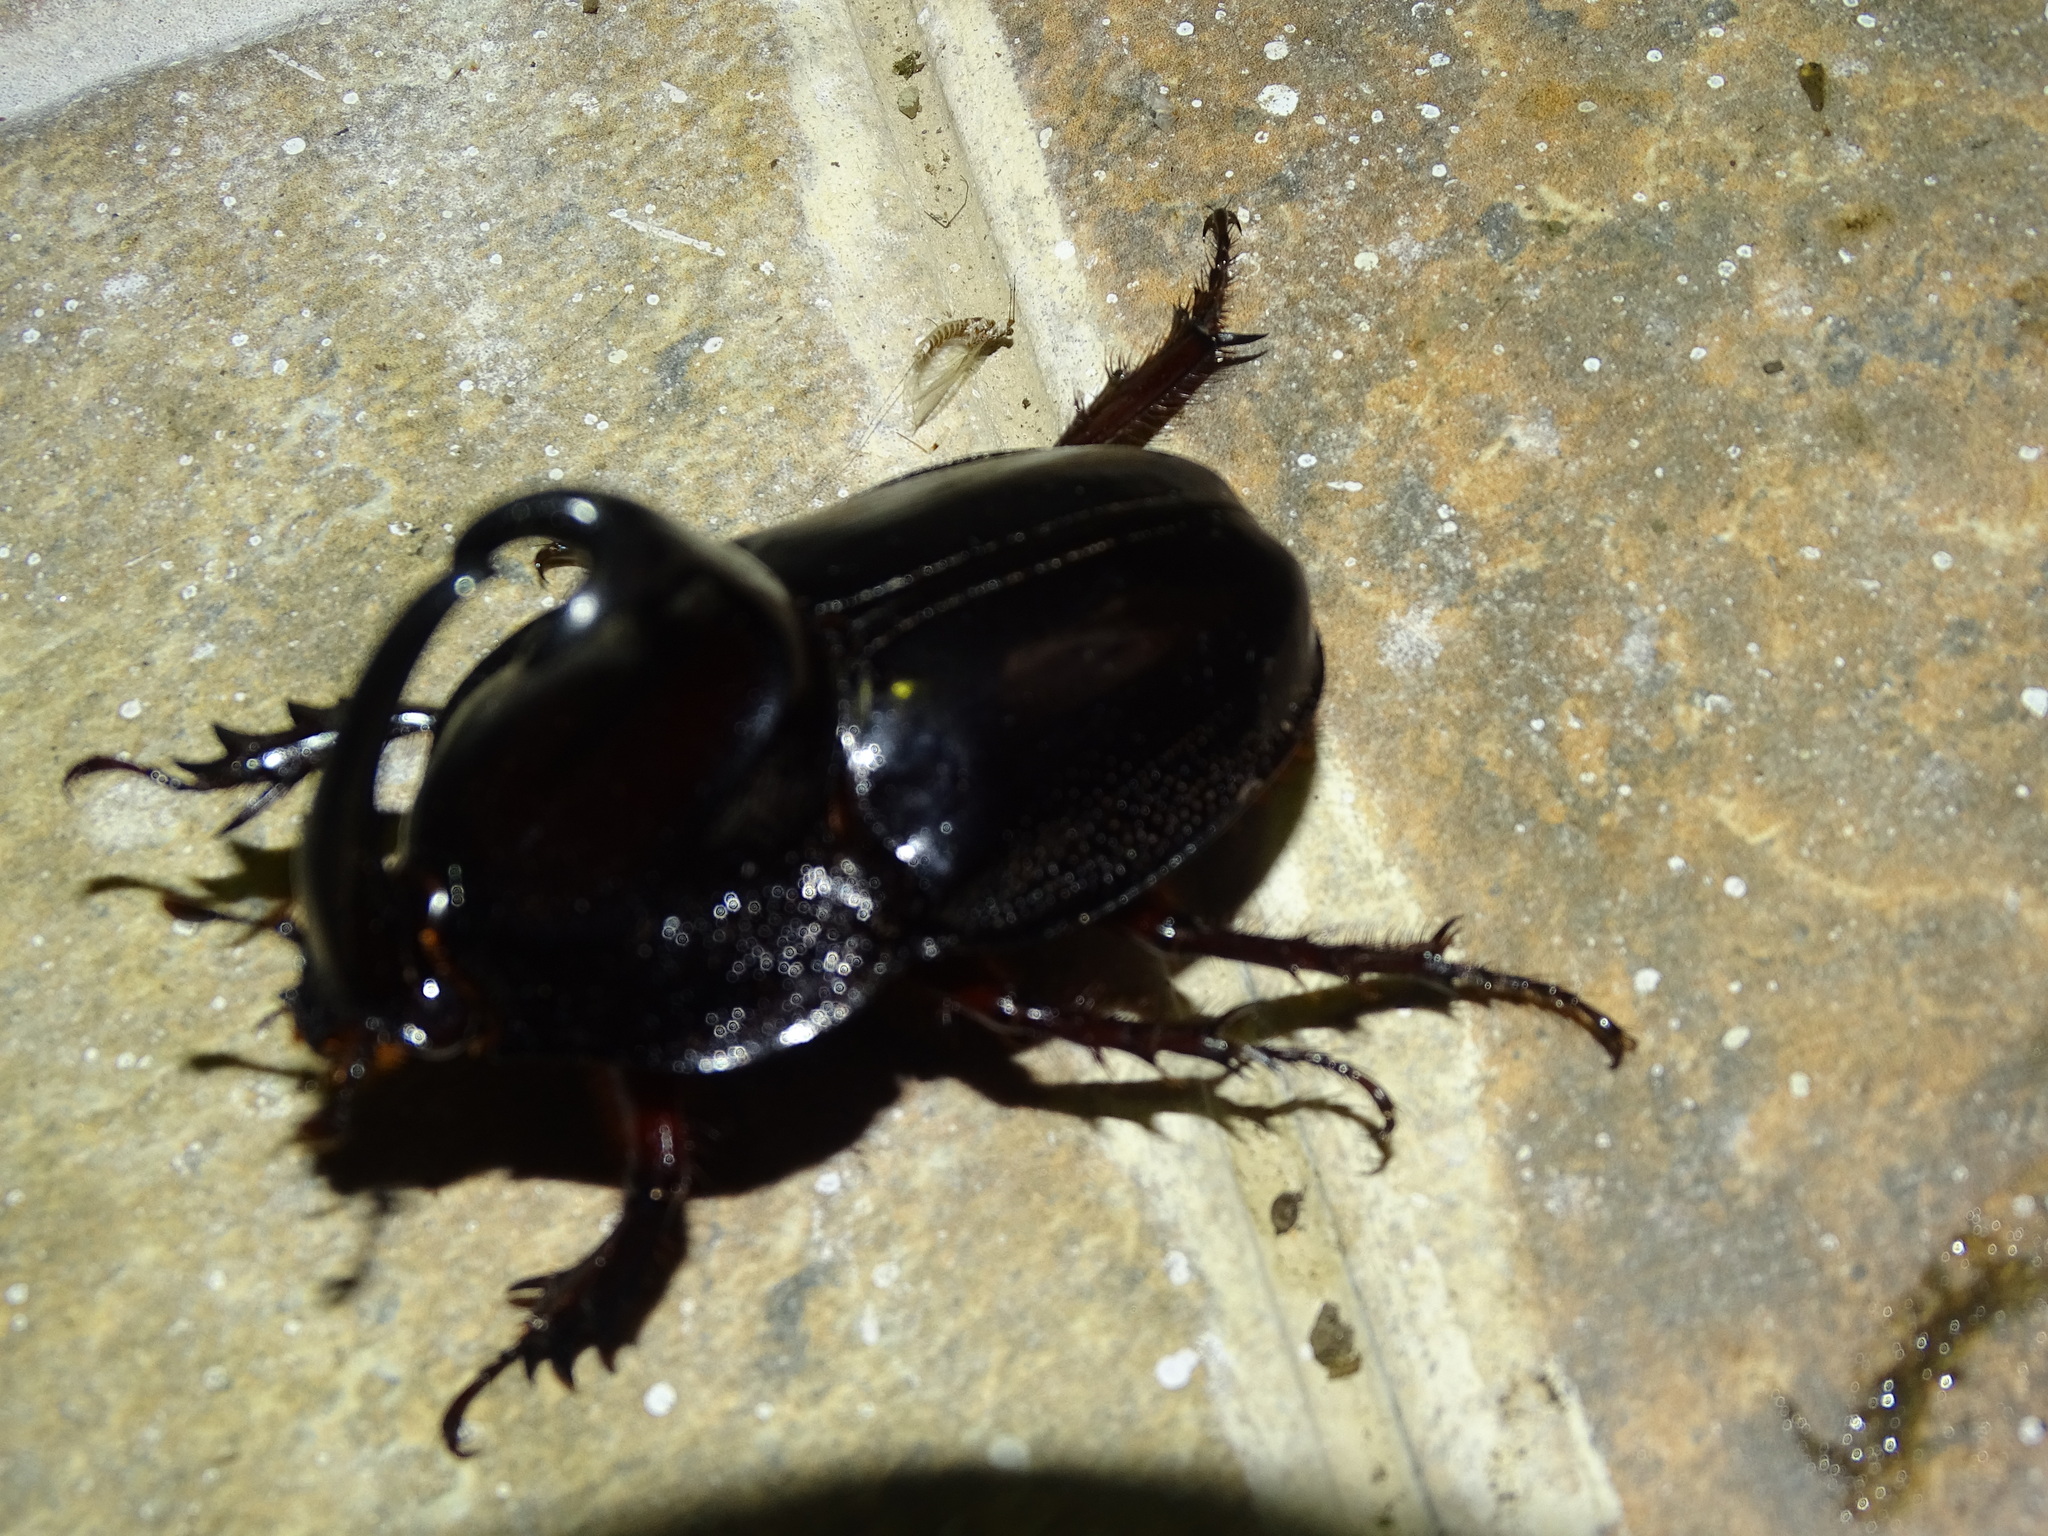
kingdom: Animalia
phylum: Arthropoda
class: Insecta
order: Coleoptera
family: Scarabaeidae
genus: Enema
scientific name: Enema pan
